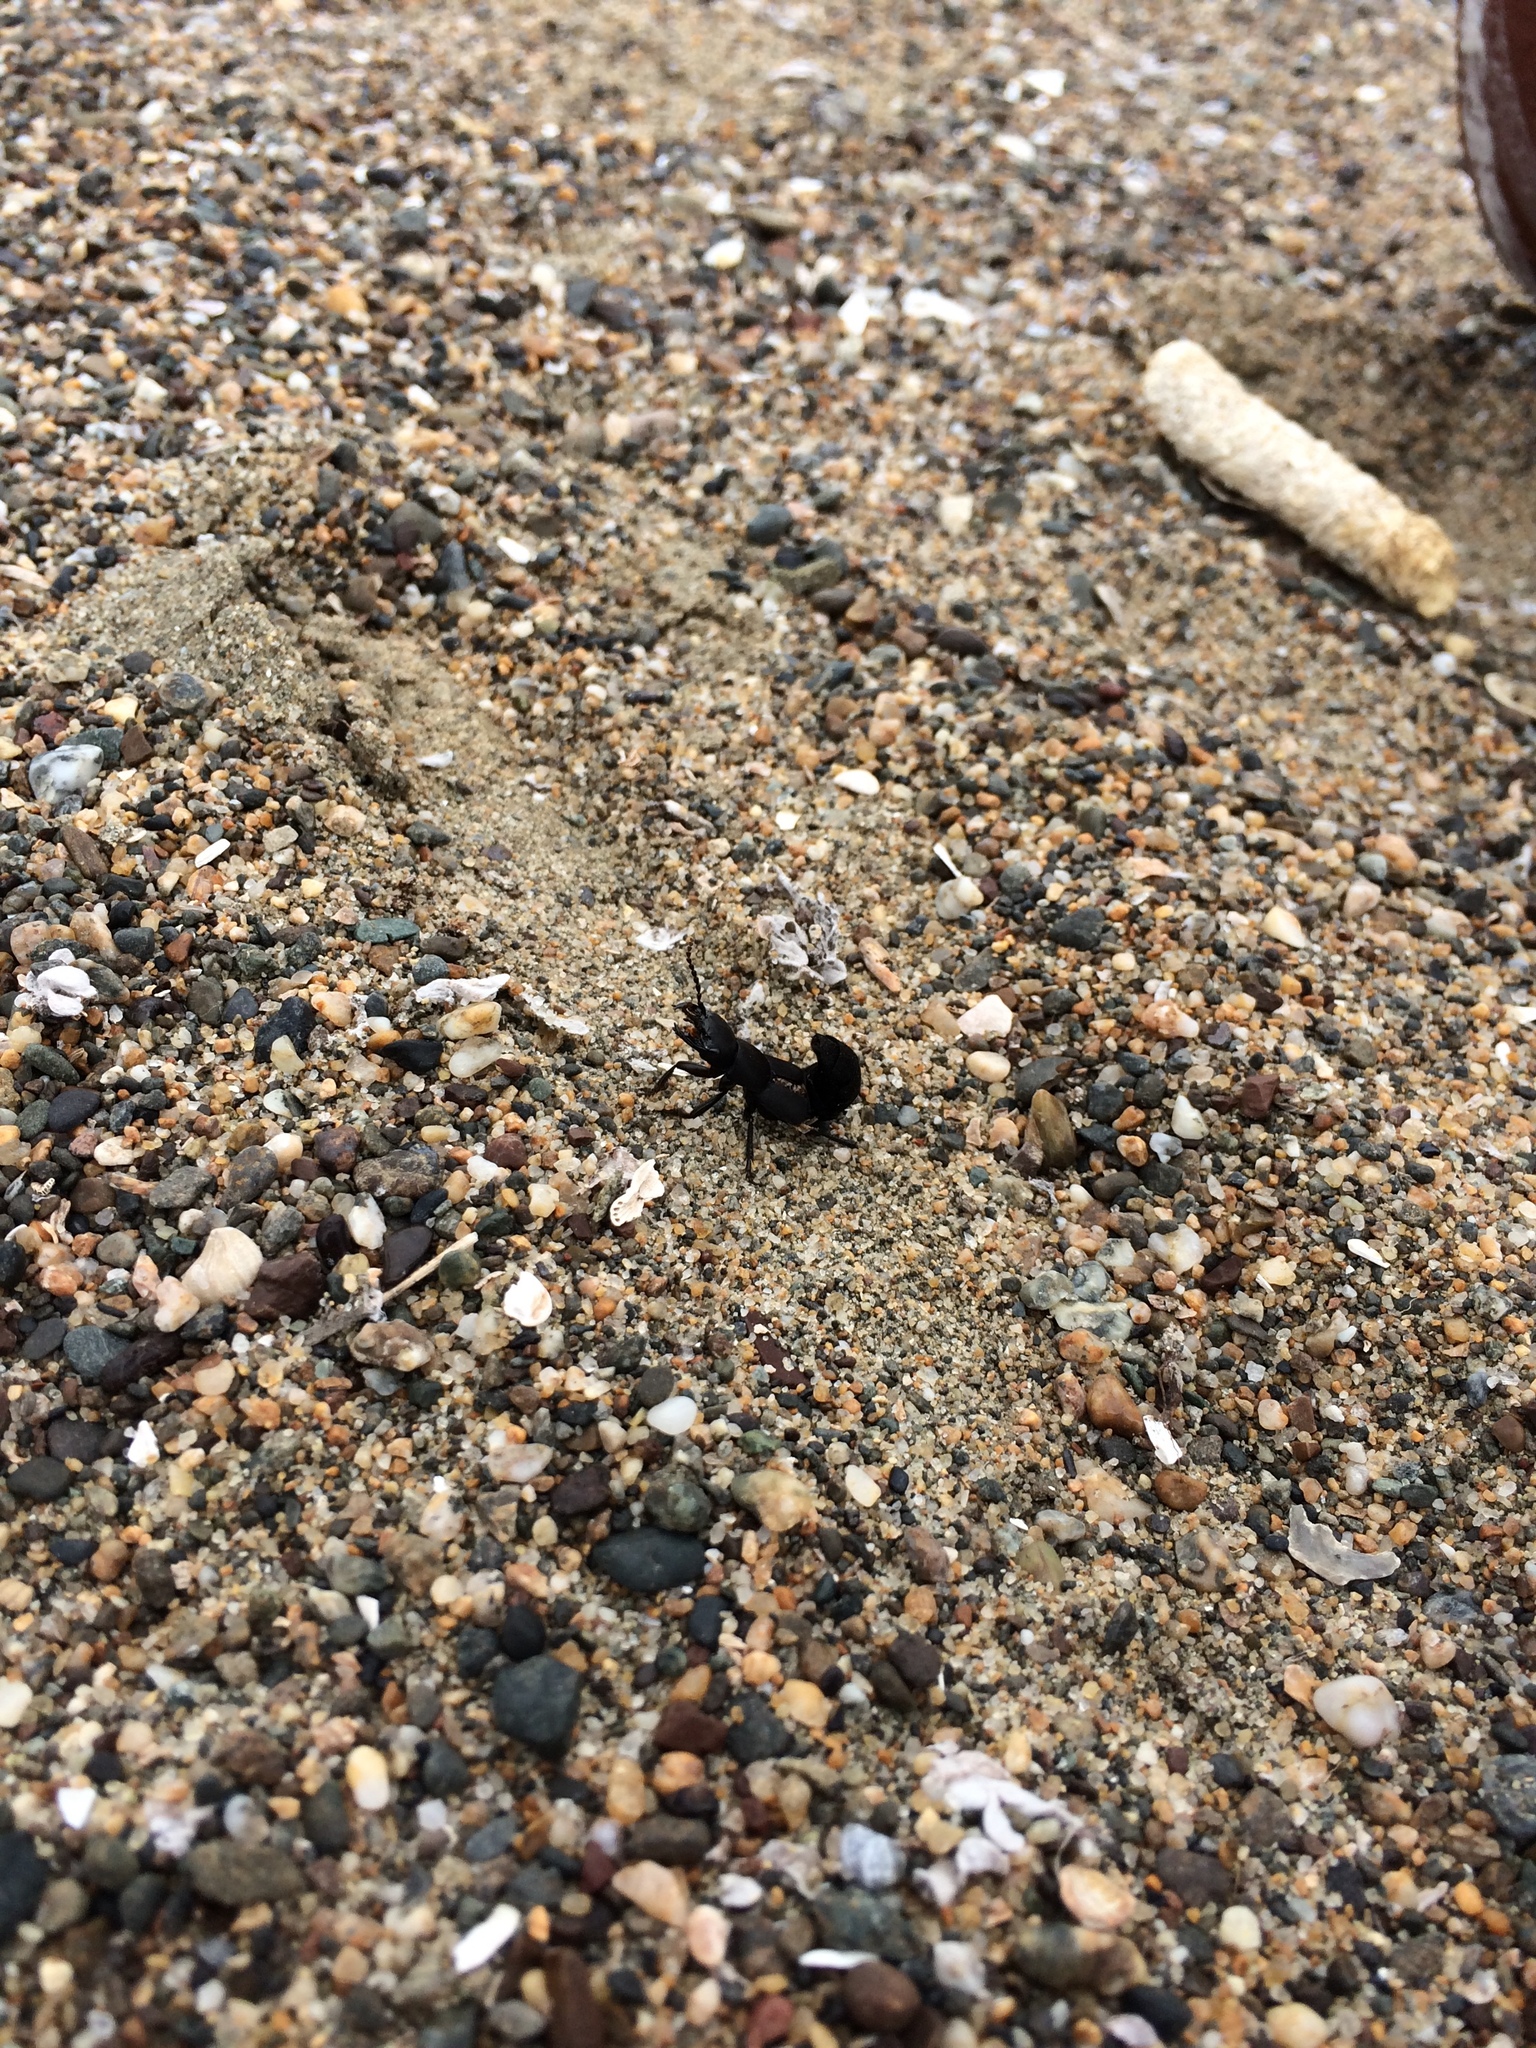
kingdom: Animalia
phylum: Arthropoda
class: Insecta
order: Coleoptera
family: Staphylinidae
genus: Ocypus
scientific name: Ocypus olens
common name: Devil's coach-horse
